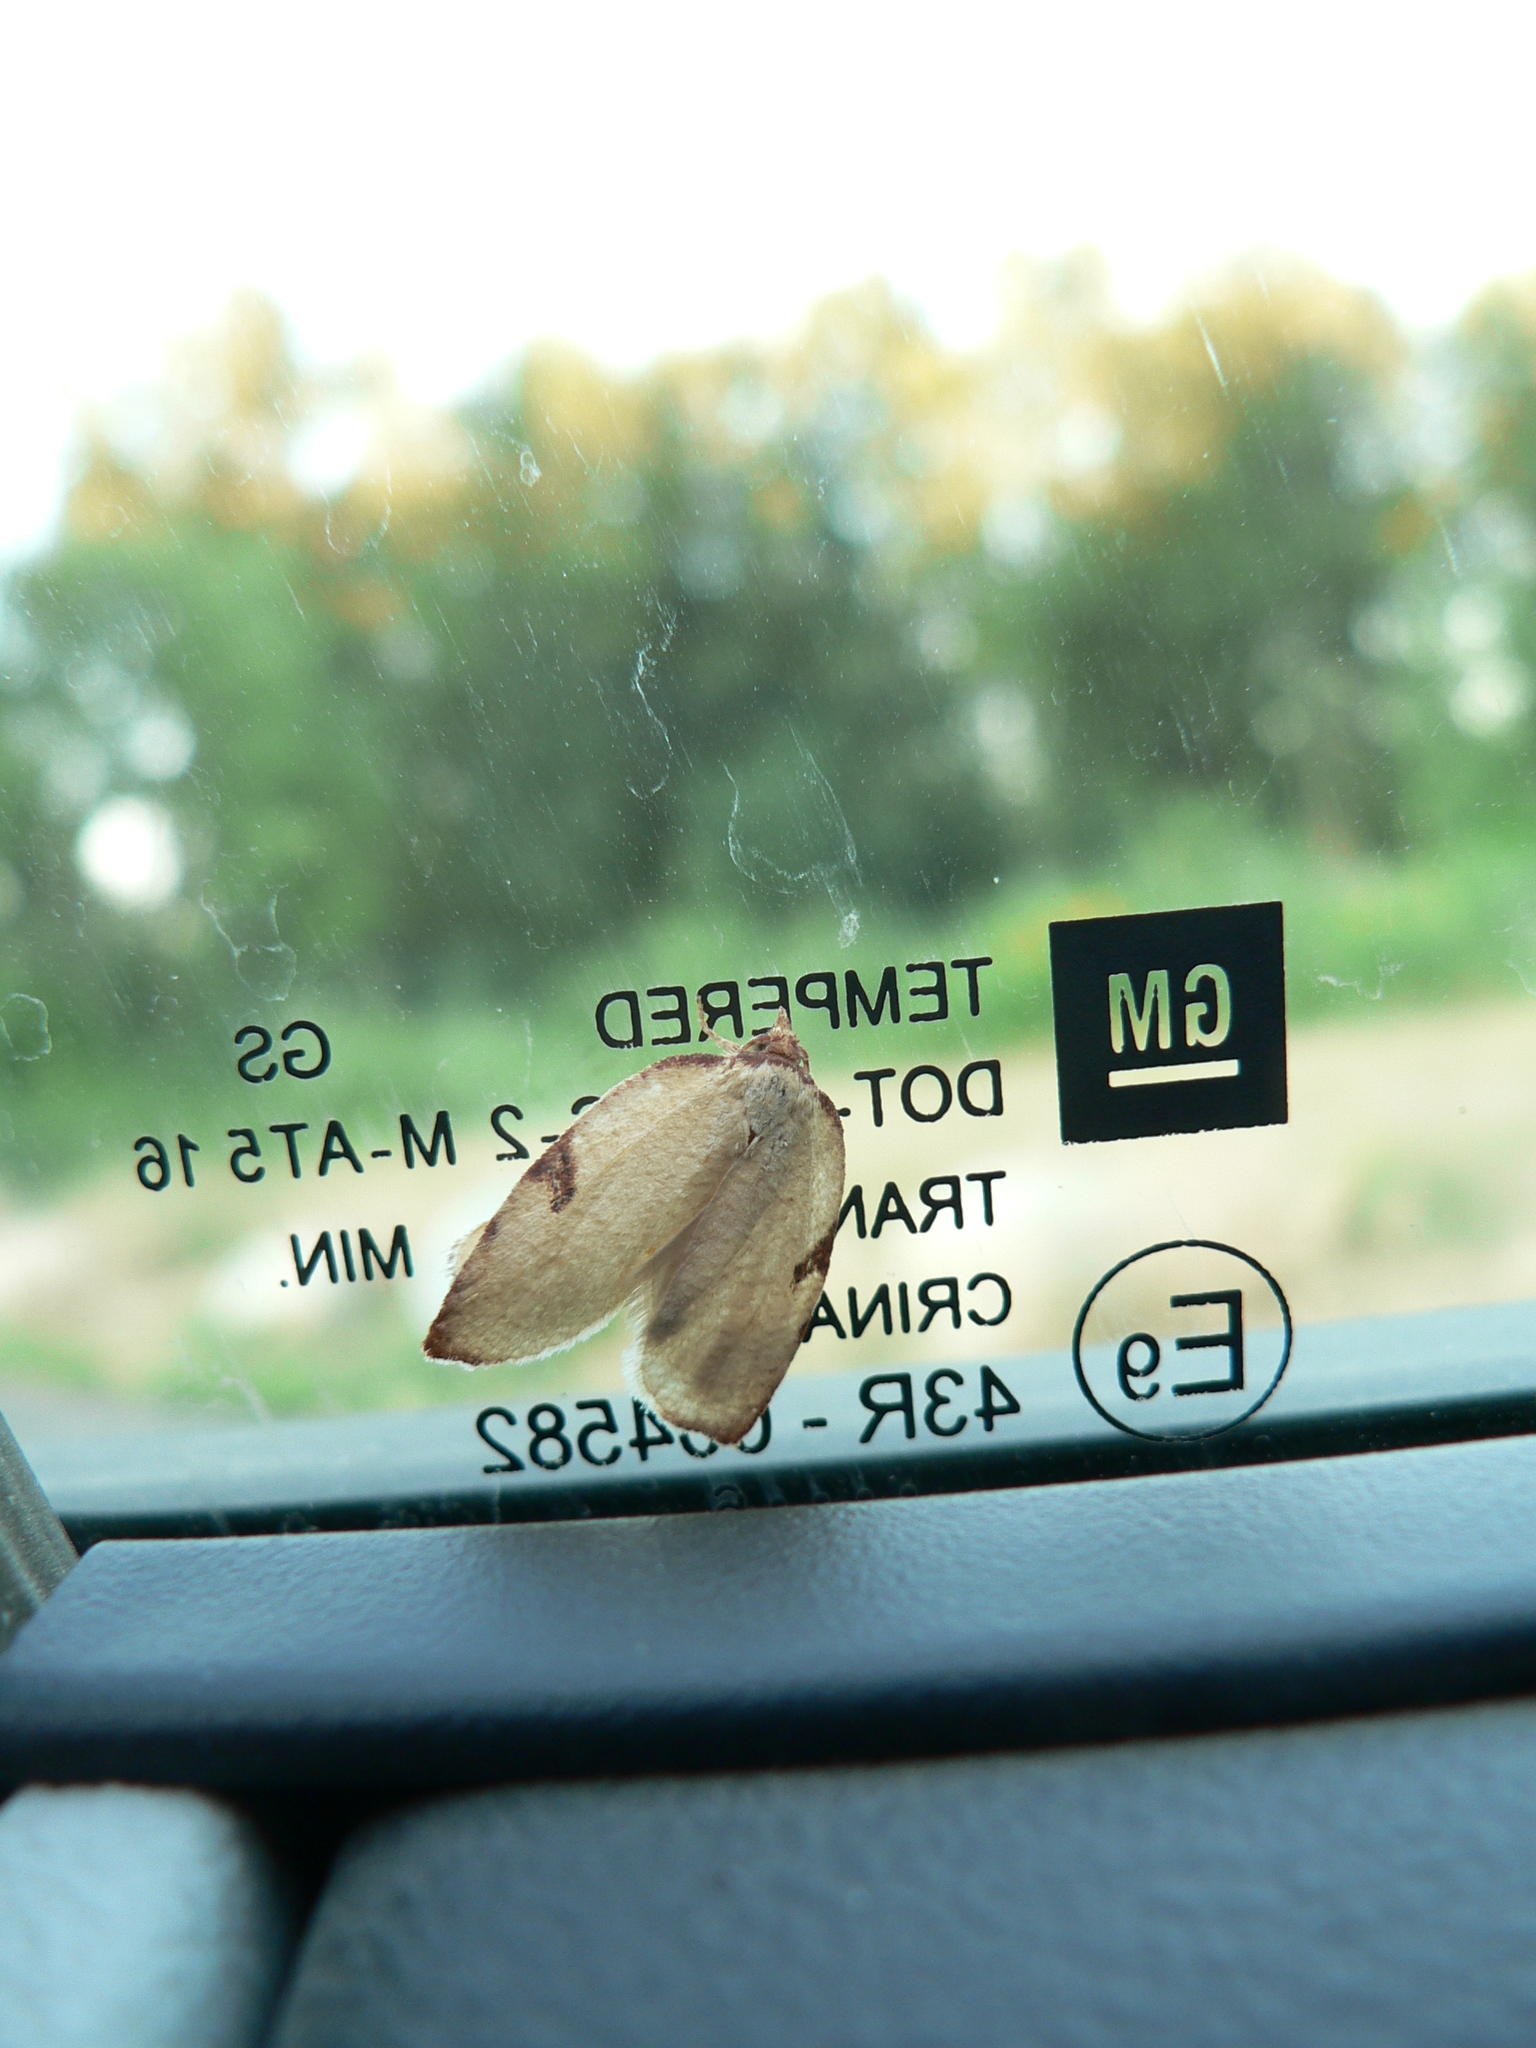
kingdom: Animalia
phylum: Arthropoda
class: Insecta
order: Lepidoptera
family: Tortricidae
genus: Amorbia
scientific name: Amorbia cuneanum
